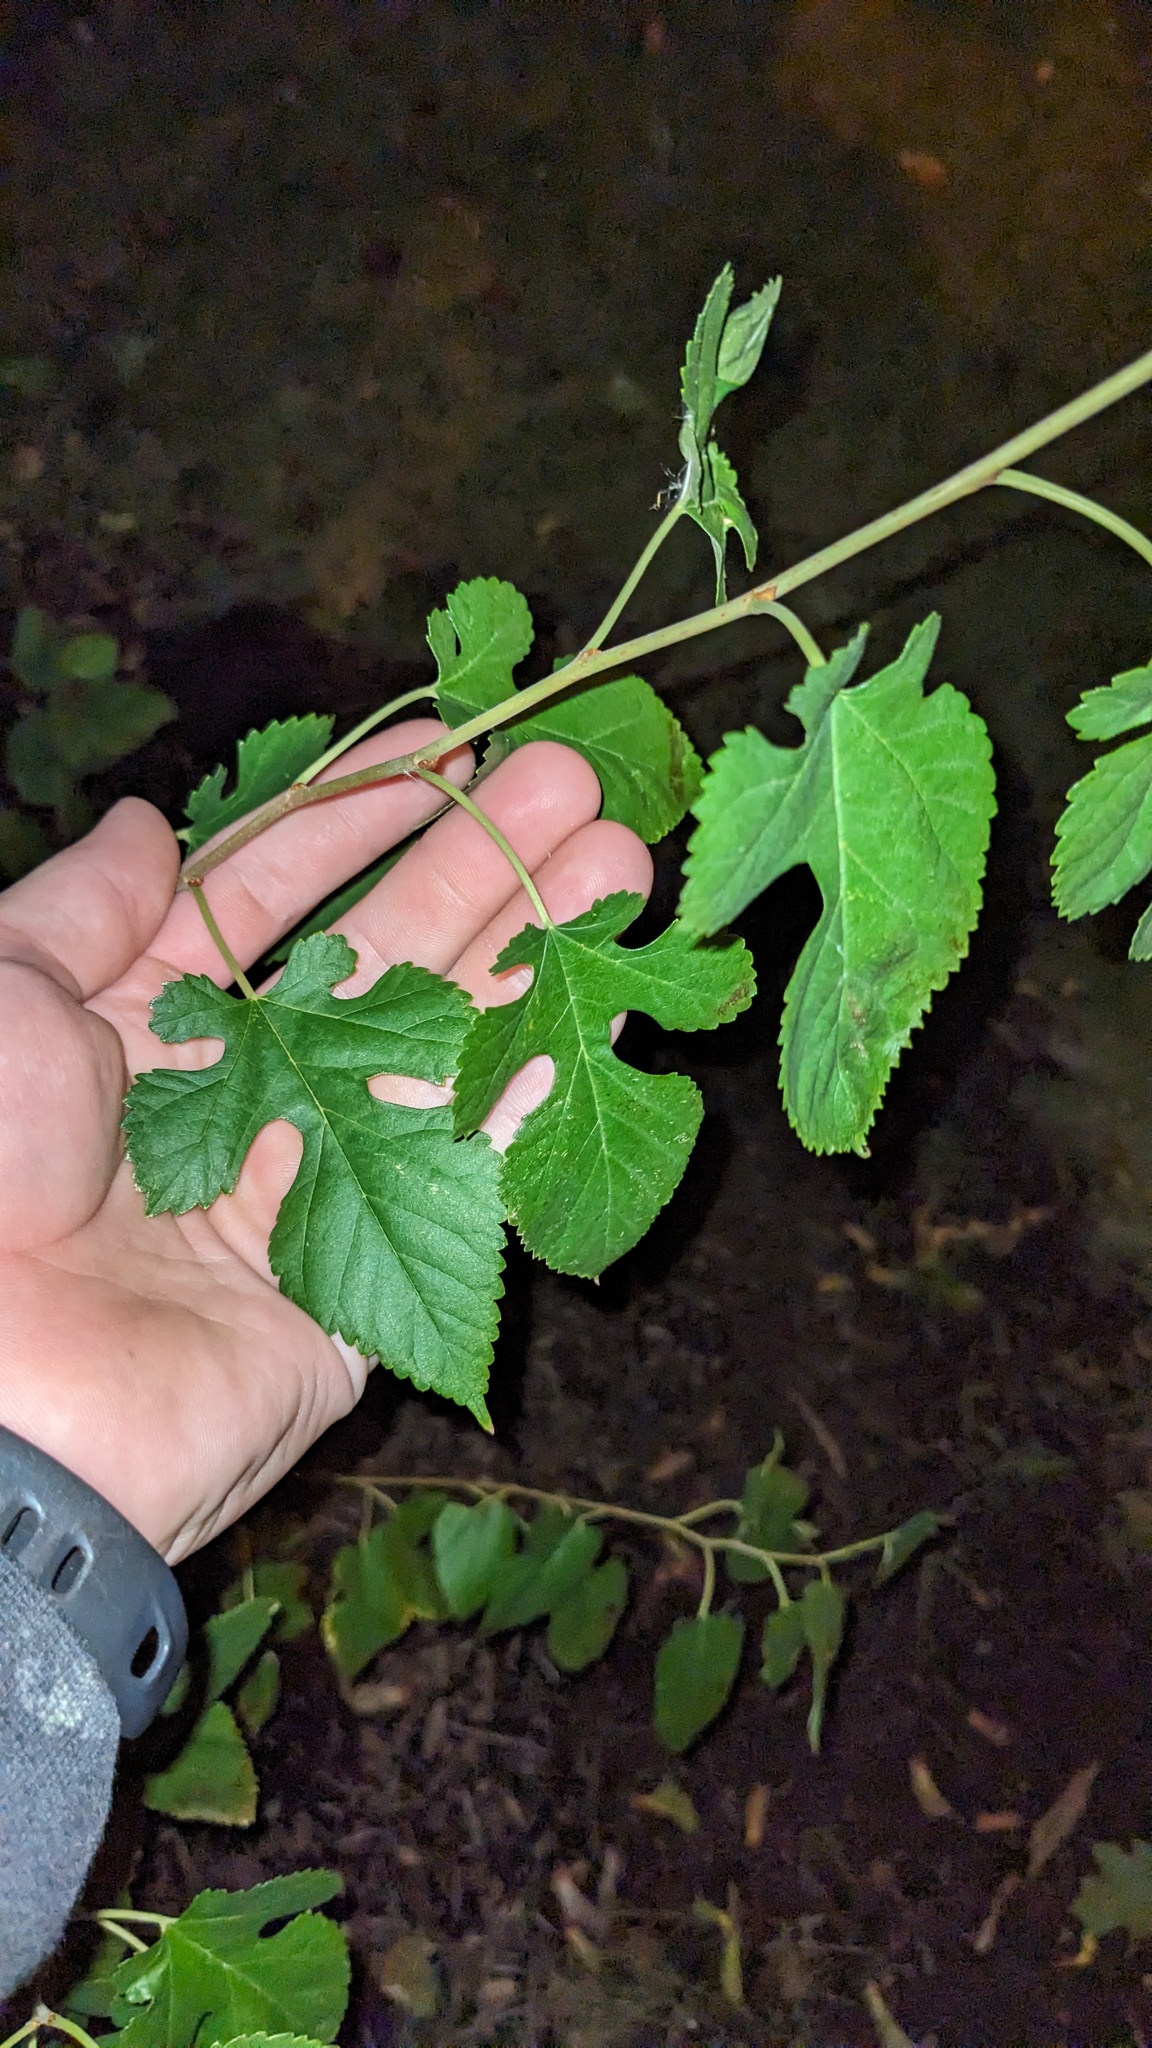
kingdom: Plantae
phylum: Tracheophyta
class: Magnoliopsida
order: Rosales
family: Moraceae
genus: Morus
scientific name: Morus alba
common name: White mulberry
